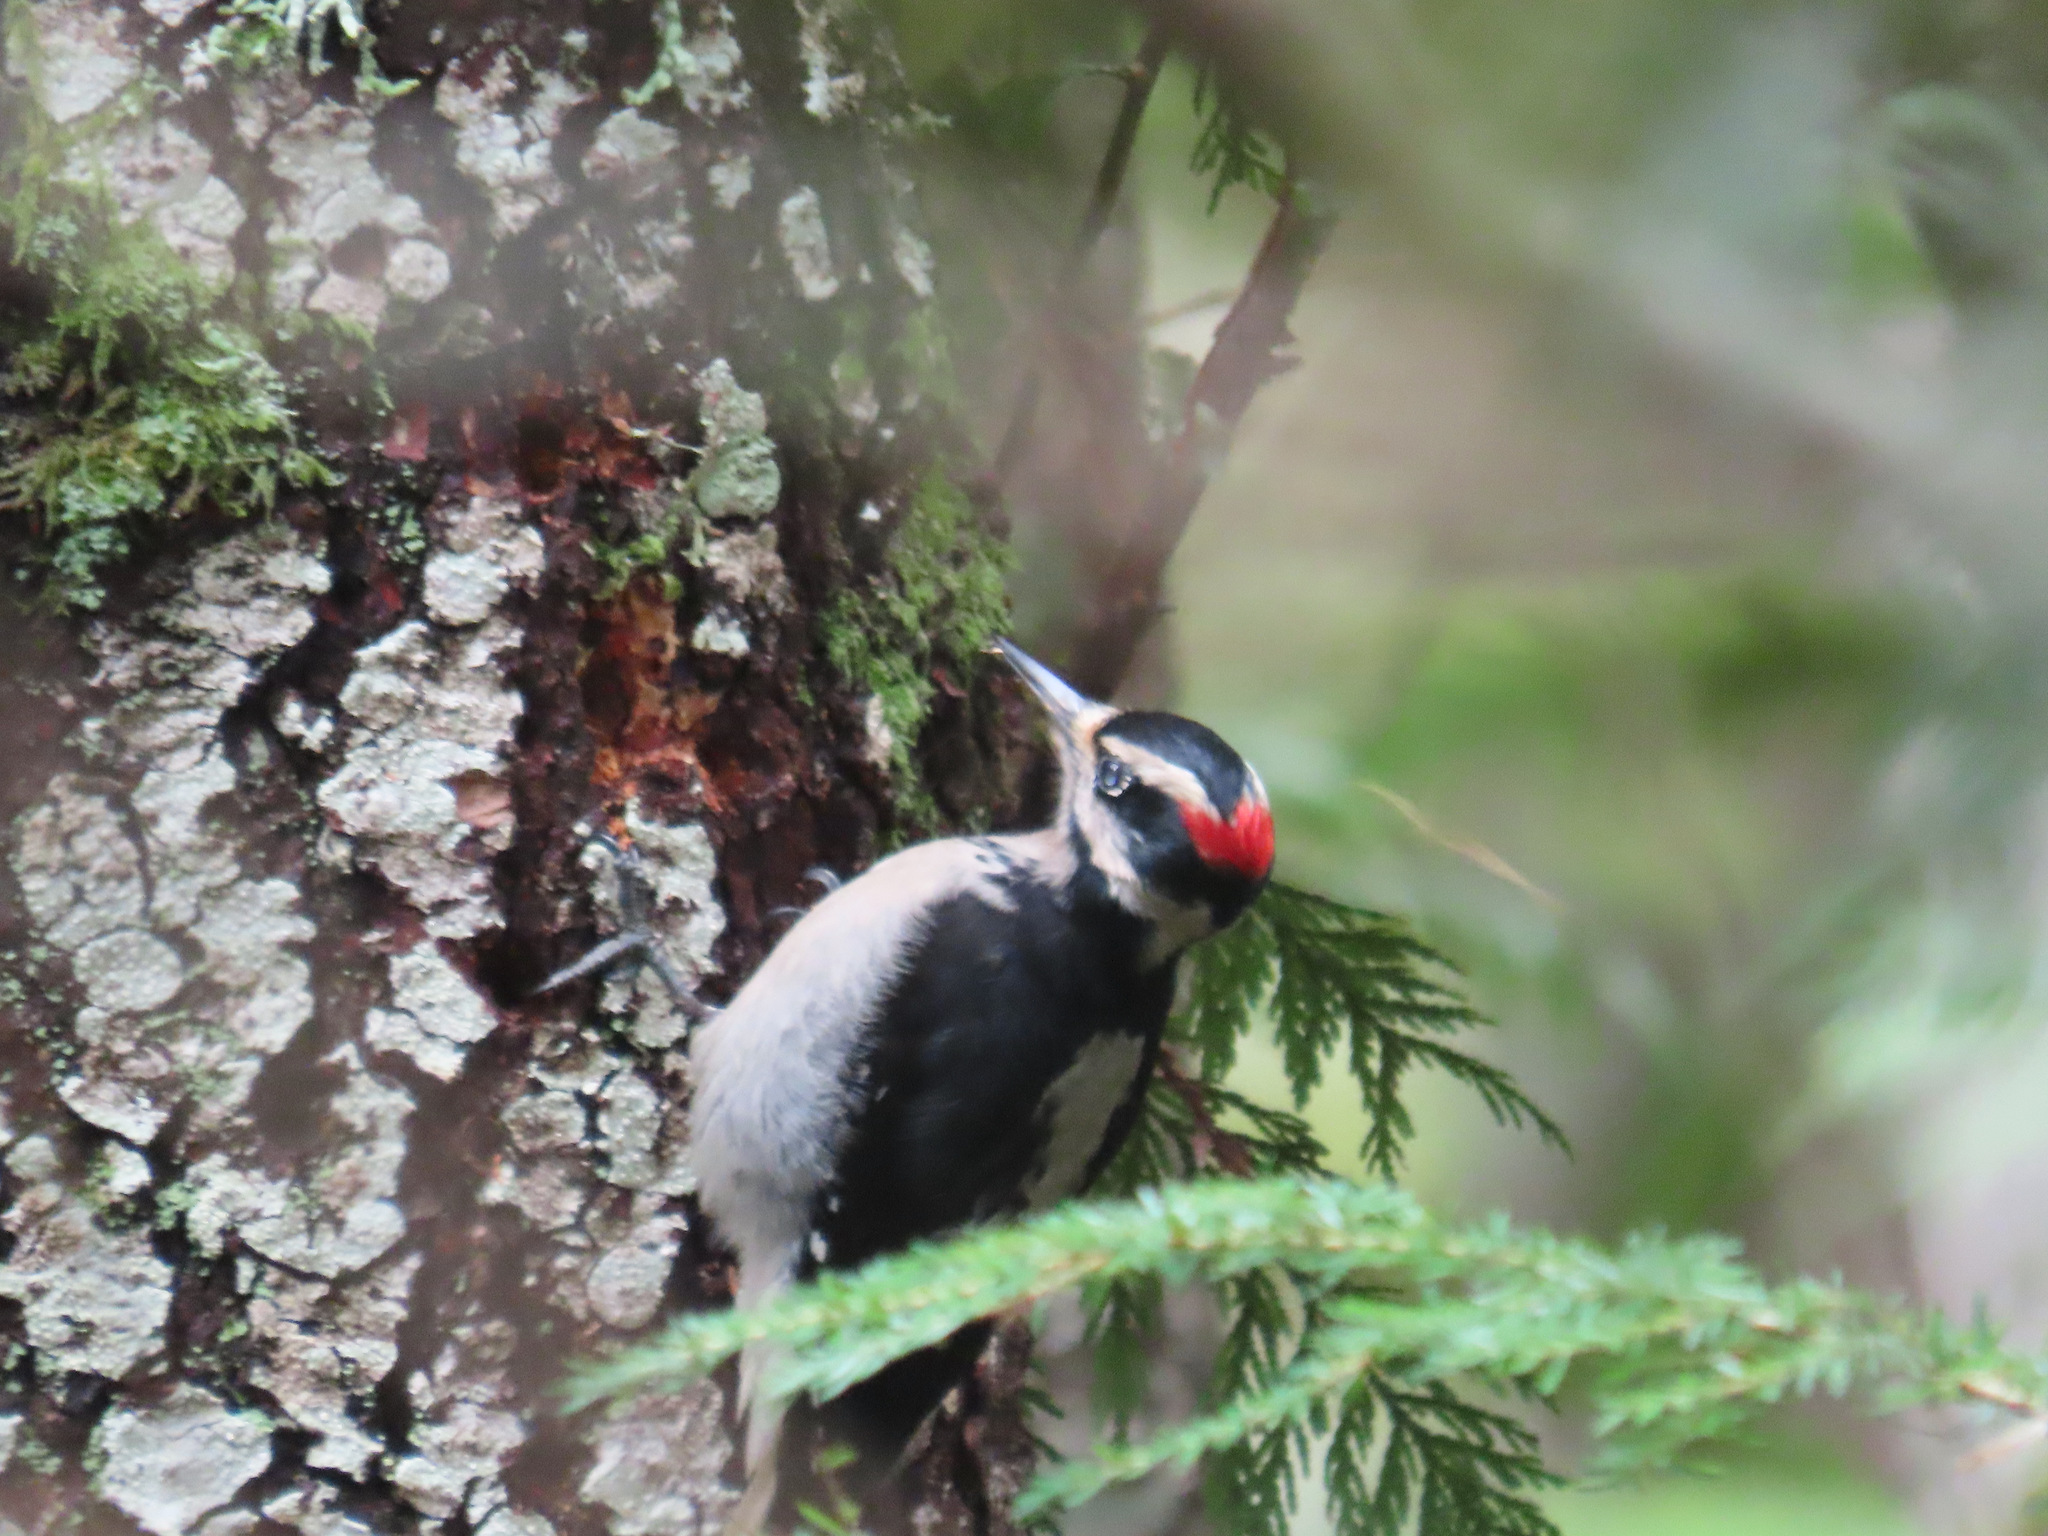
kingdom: Animalia
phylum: Chordata
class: Aves
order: Piciformes
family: Picidae
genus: Leuconotopicus
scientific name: Leuconotopicus villosus
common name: Hairy woodpecker
